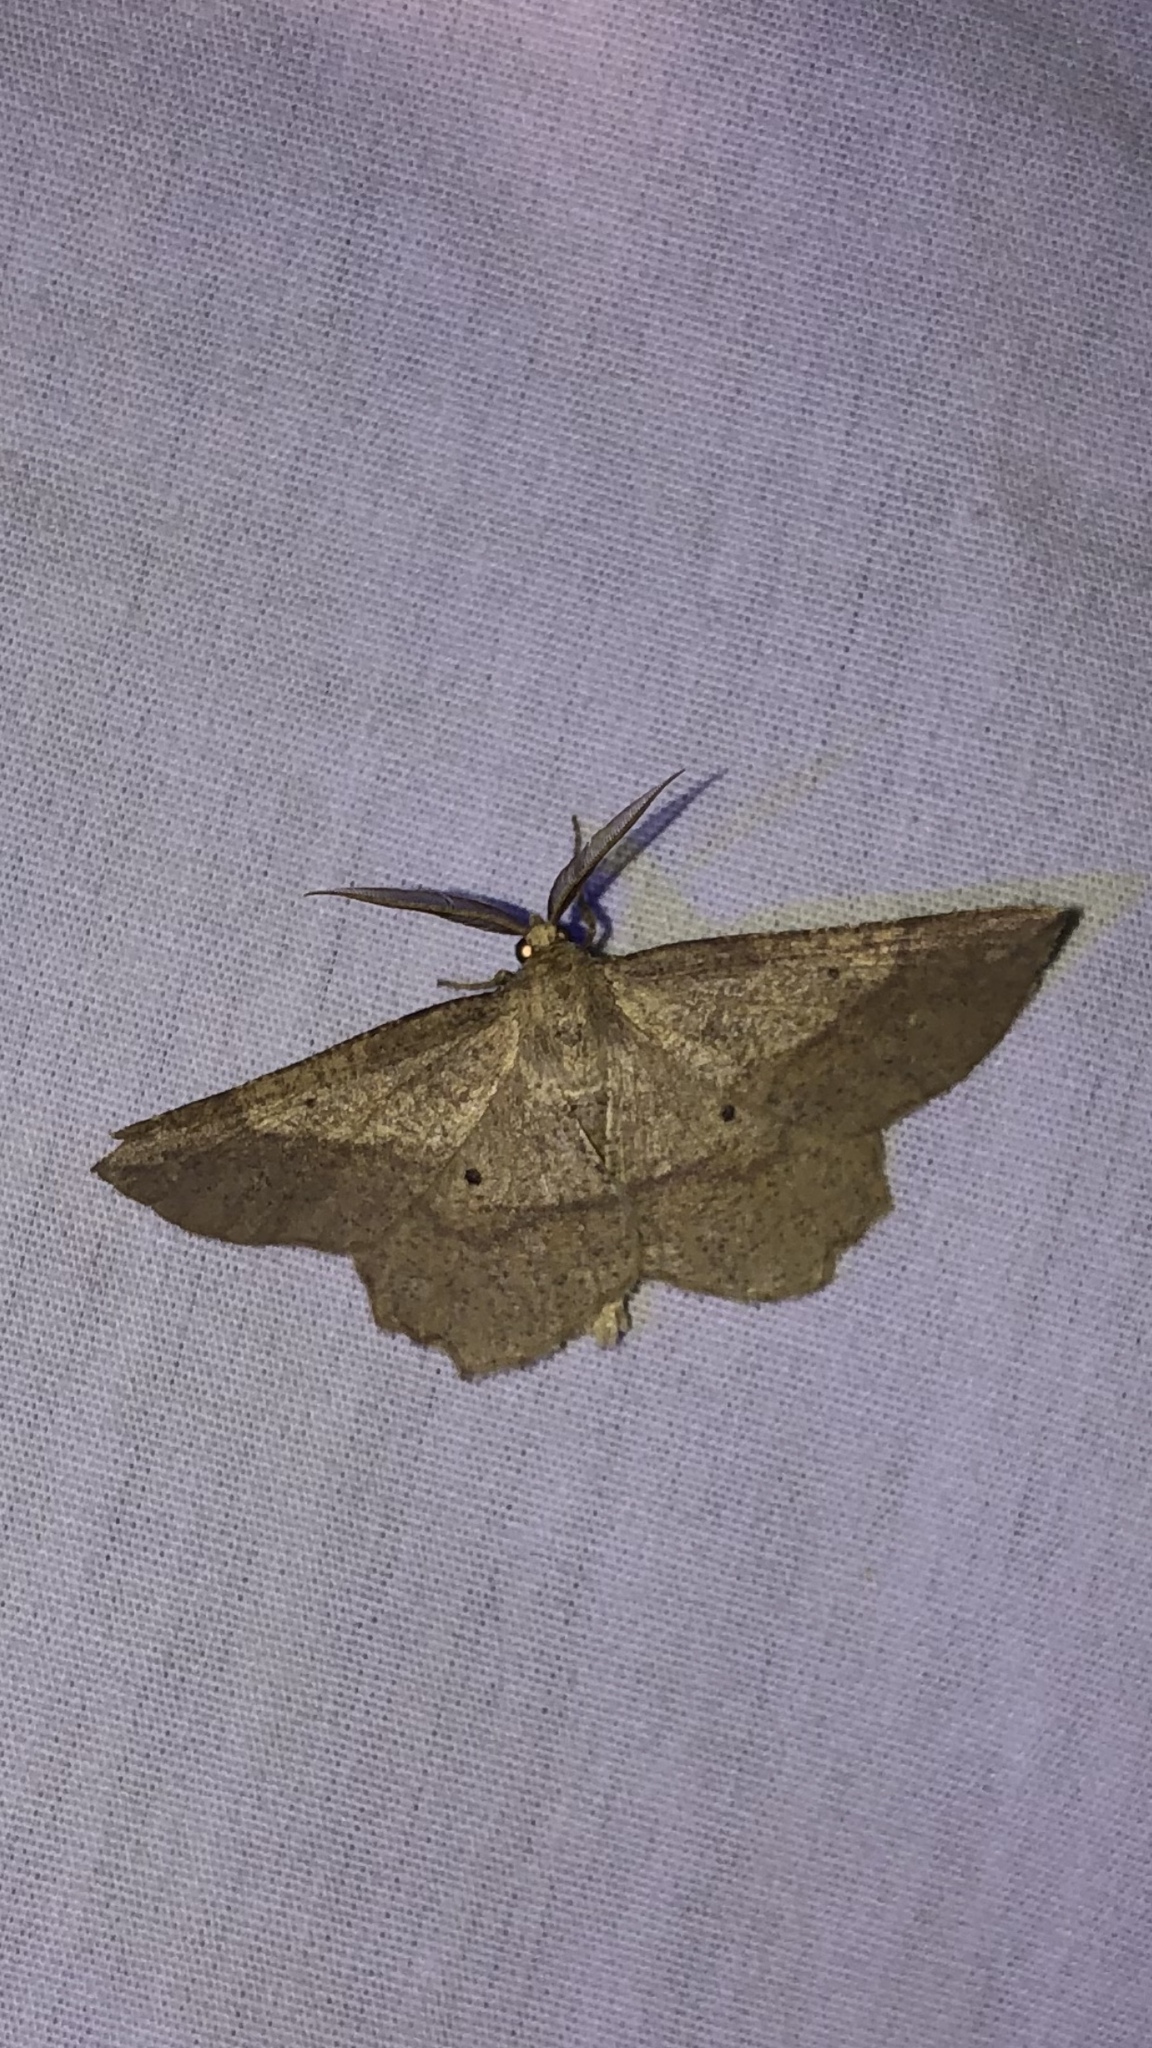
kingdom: Animalia
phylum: Arthropoda
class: Insecta
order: Lepidoptera
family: Geometridae
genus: Euchlaena
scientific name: Euchlaena marginaria
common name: Ochre euchlaena moth
